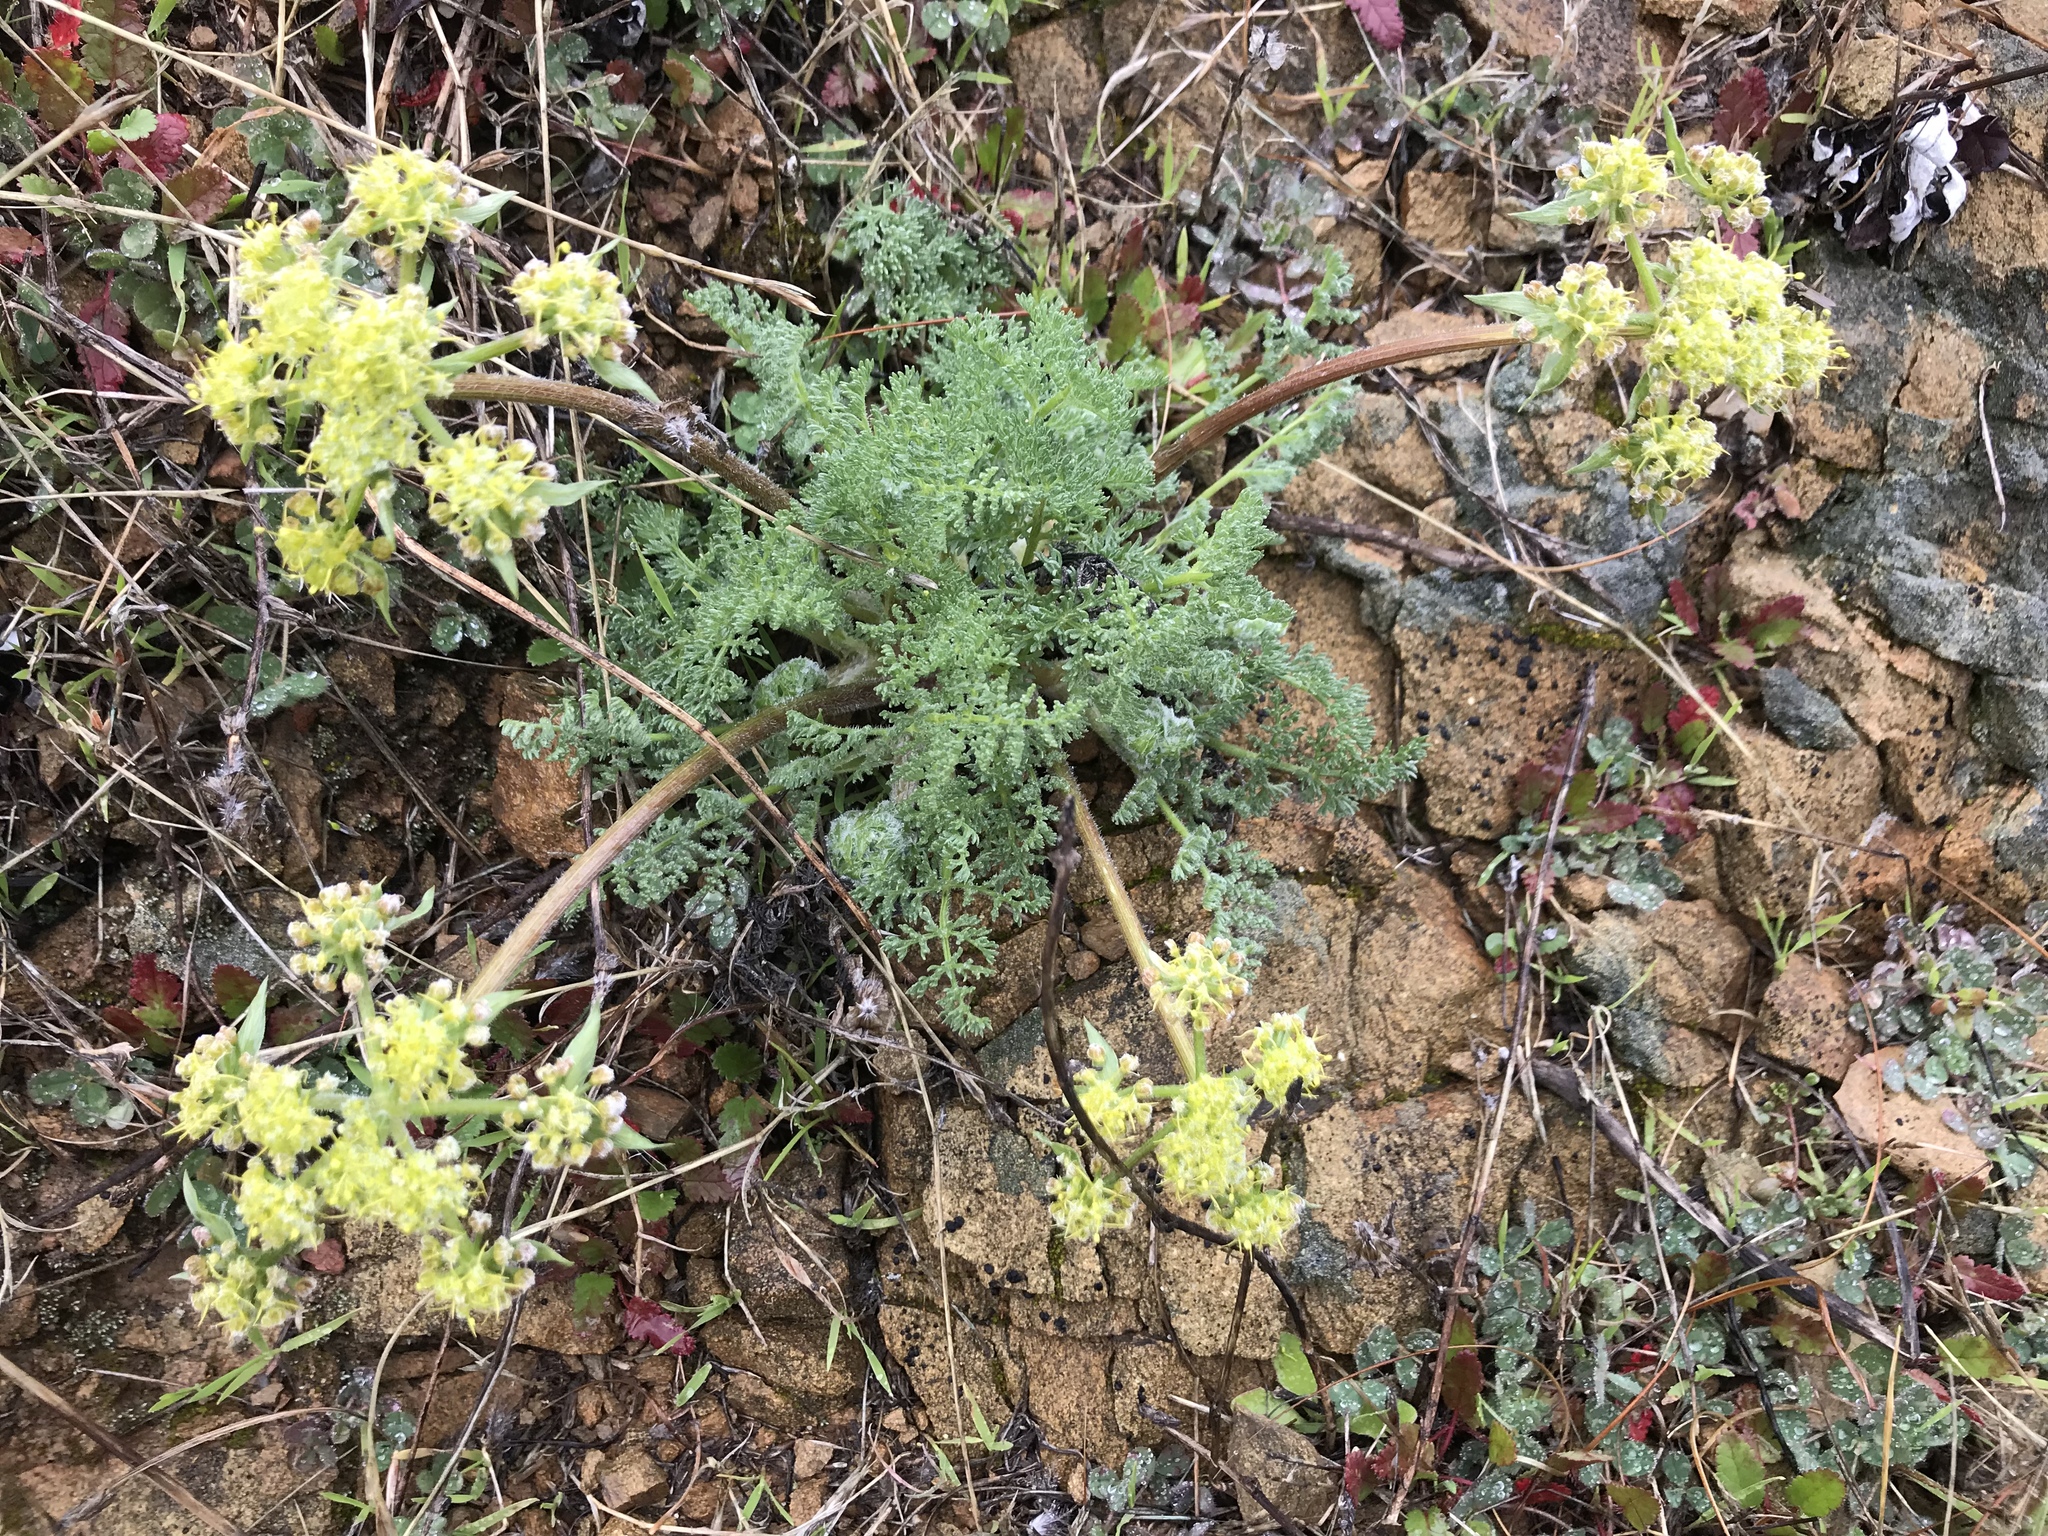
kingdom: Plantae
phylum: Tracheophyta
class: Magnoliopsida
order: Apiales
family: Apiaceae
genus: Lomatium
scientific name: Lomatium dasycarpum
